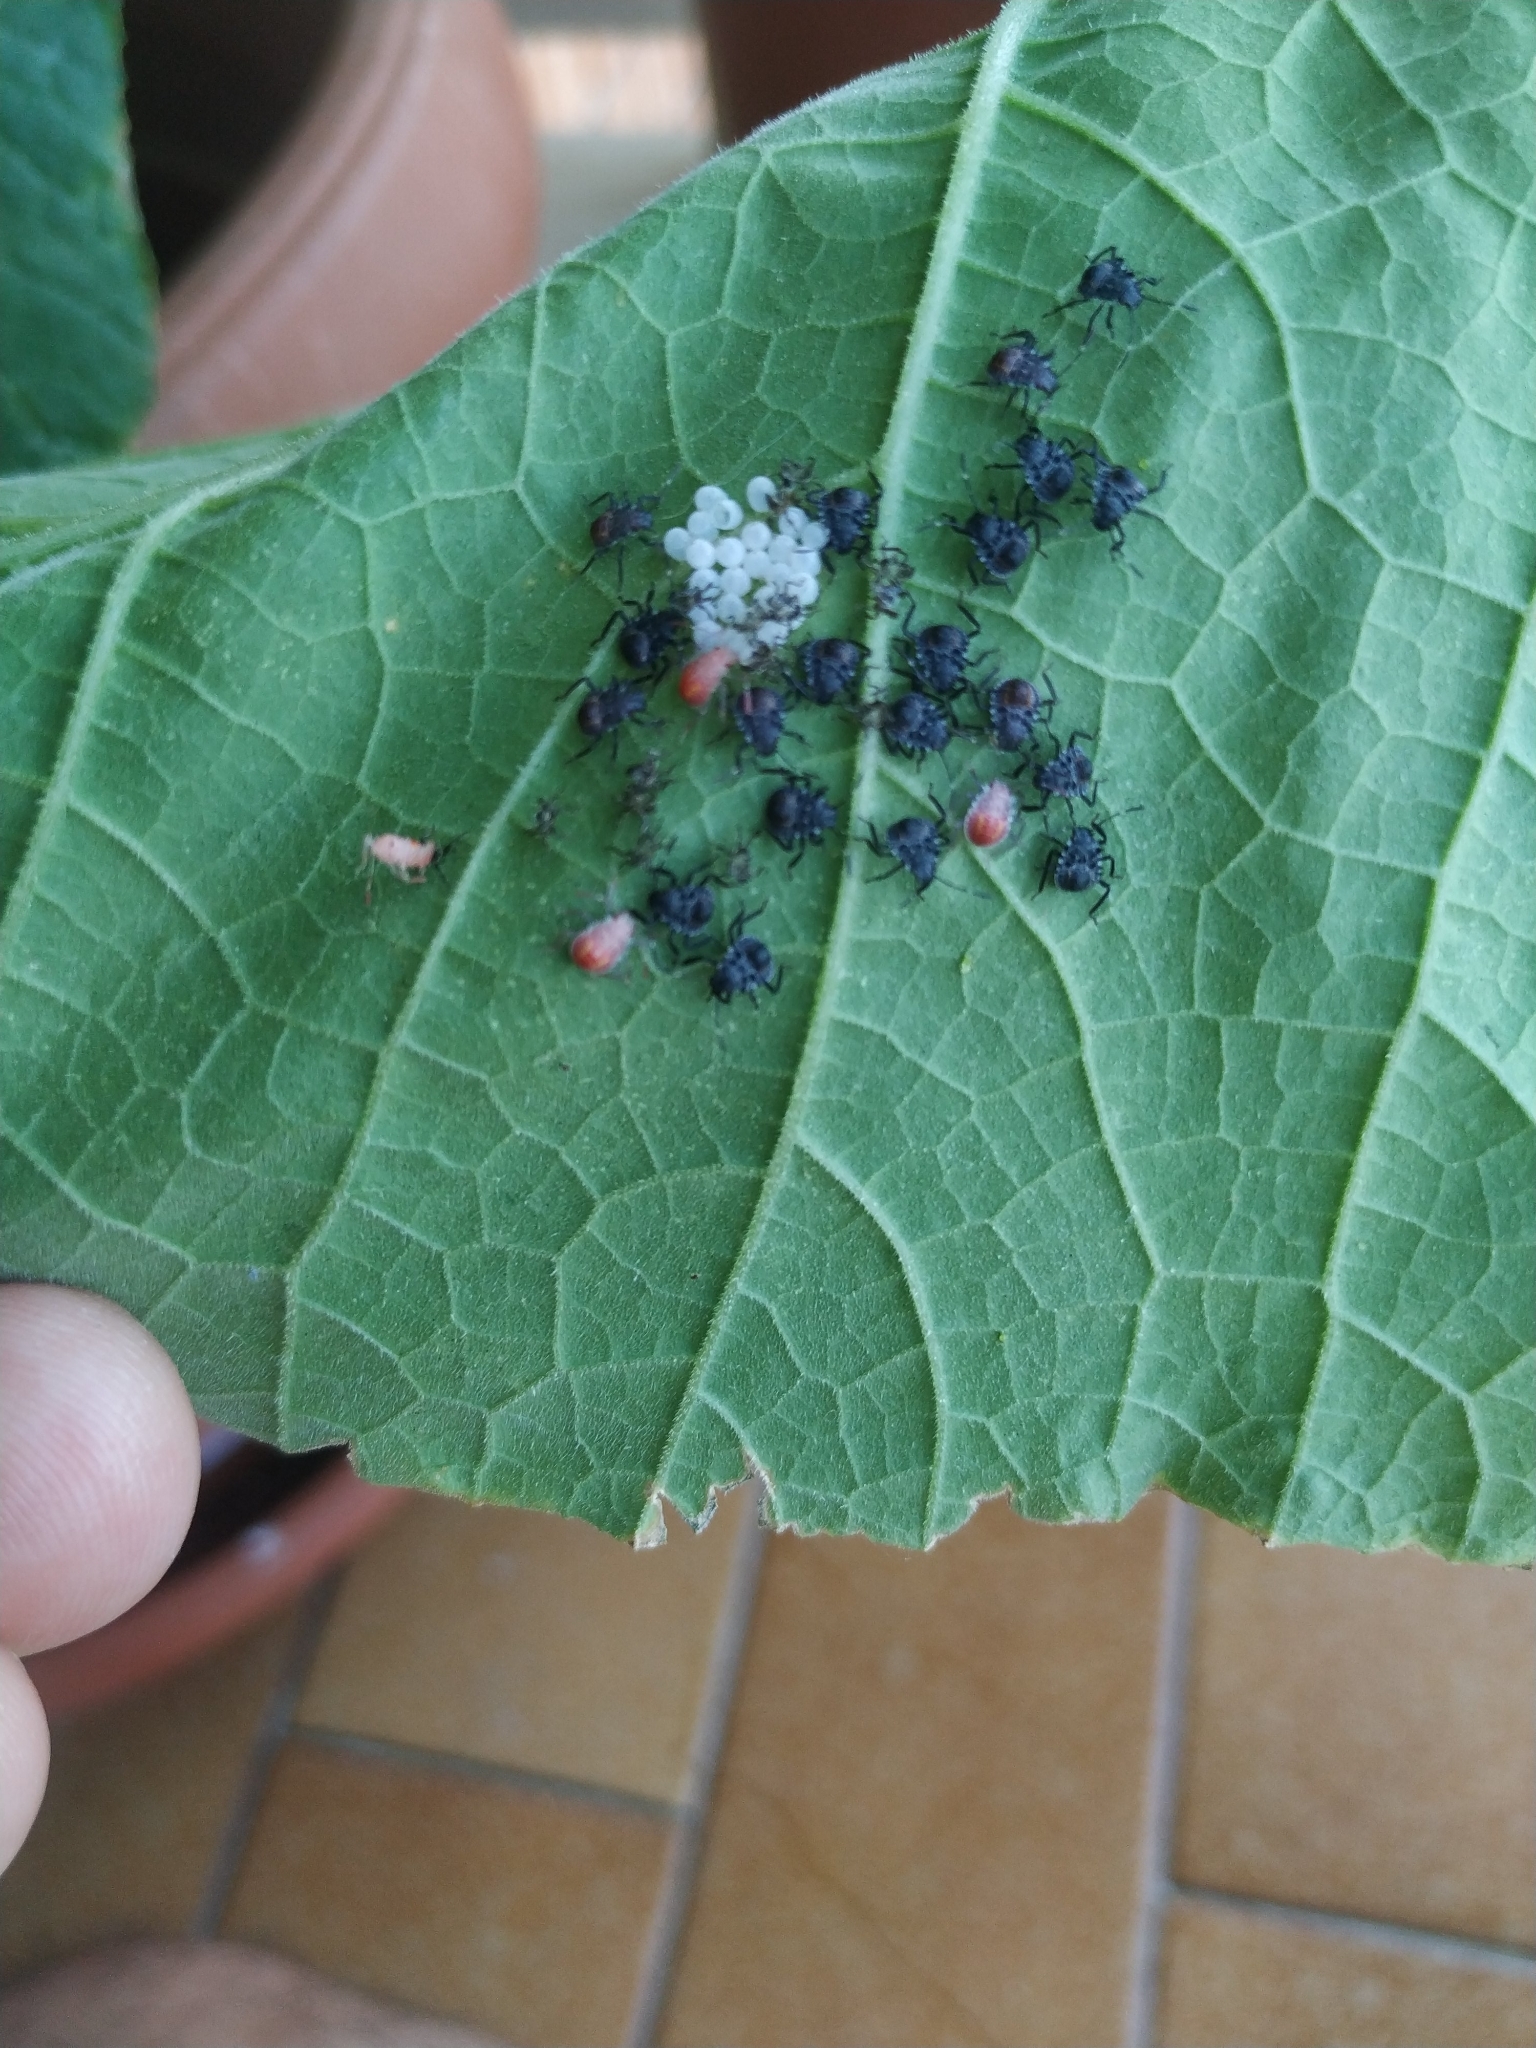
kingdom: Animalia
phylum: Arthropoda
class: Insecta
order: Hemiptera
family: Pentatomidae
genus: Halyomorpha
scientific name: Halyomorpha halys
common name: Brown marmorated stink bug
